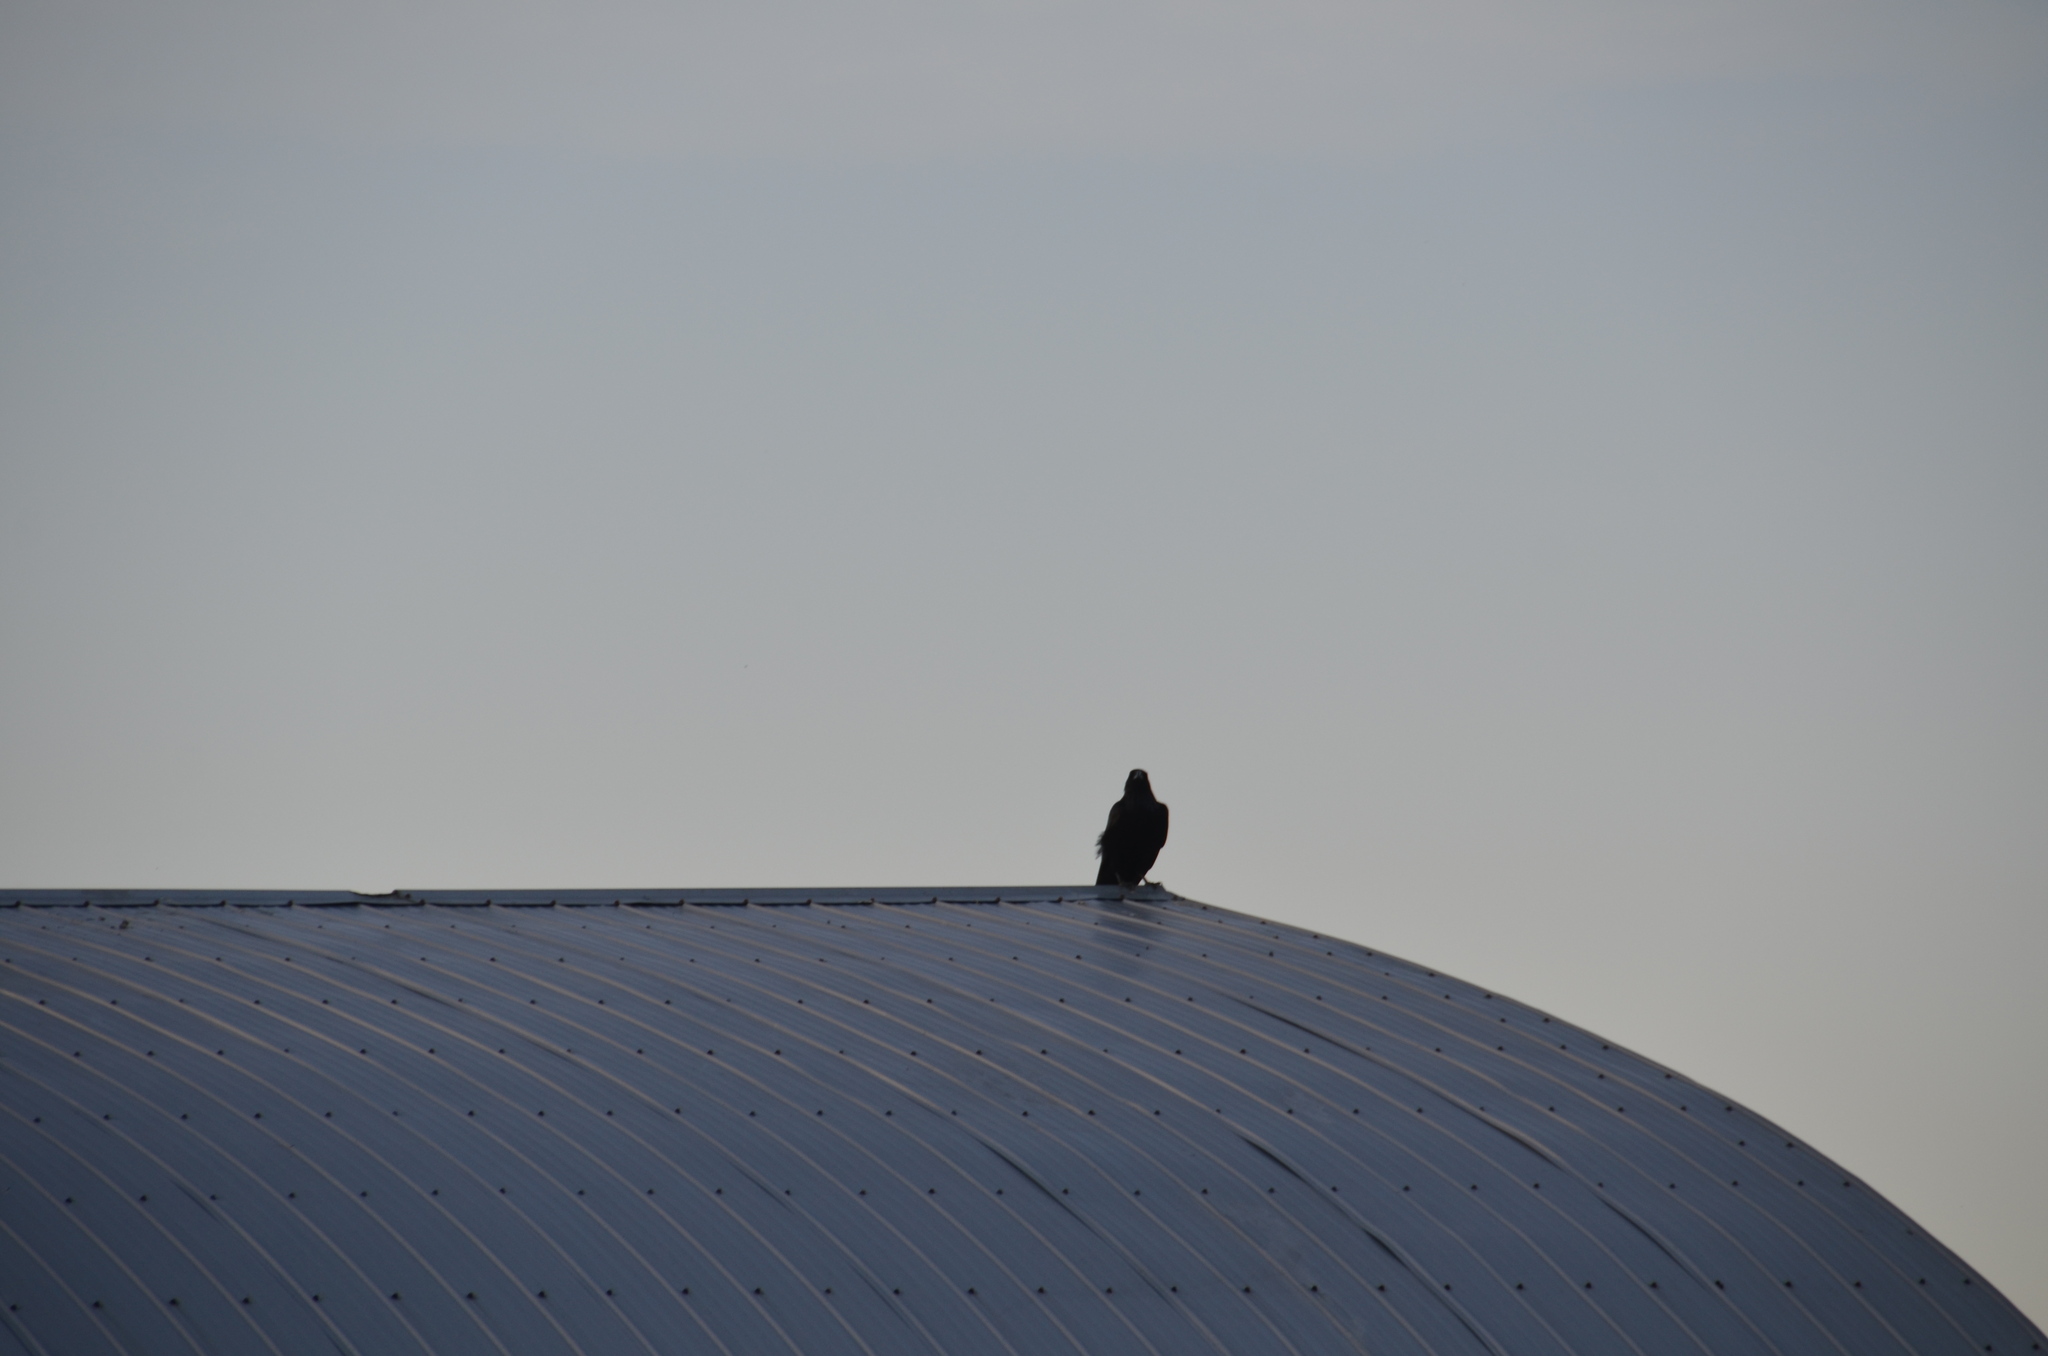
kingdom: Animalia
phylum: Chordata
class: Aves
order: Passeriformes
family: Corvidae
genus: Corvus
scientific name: Corvus corax
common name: Common raven
